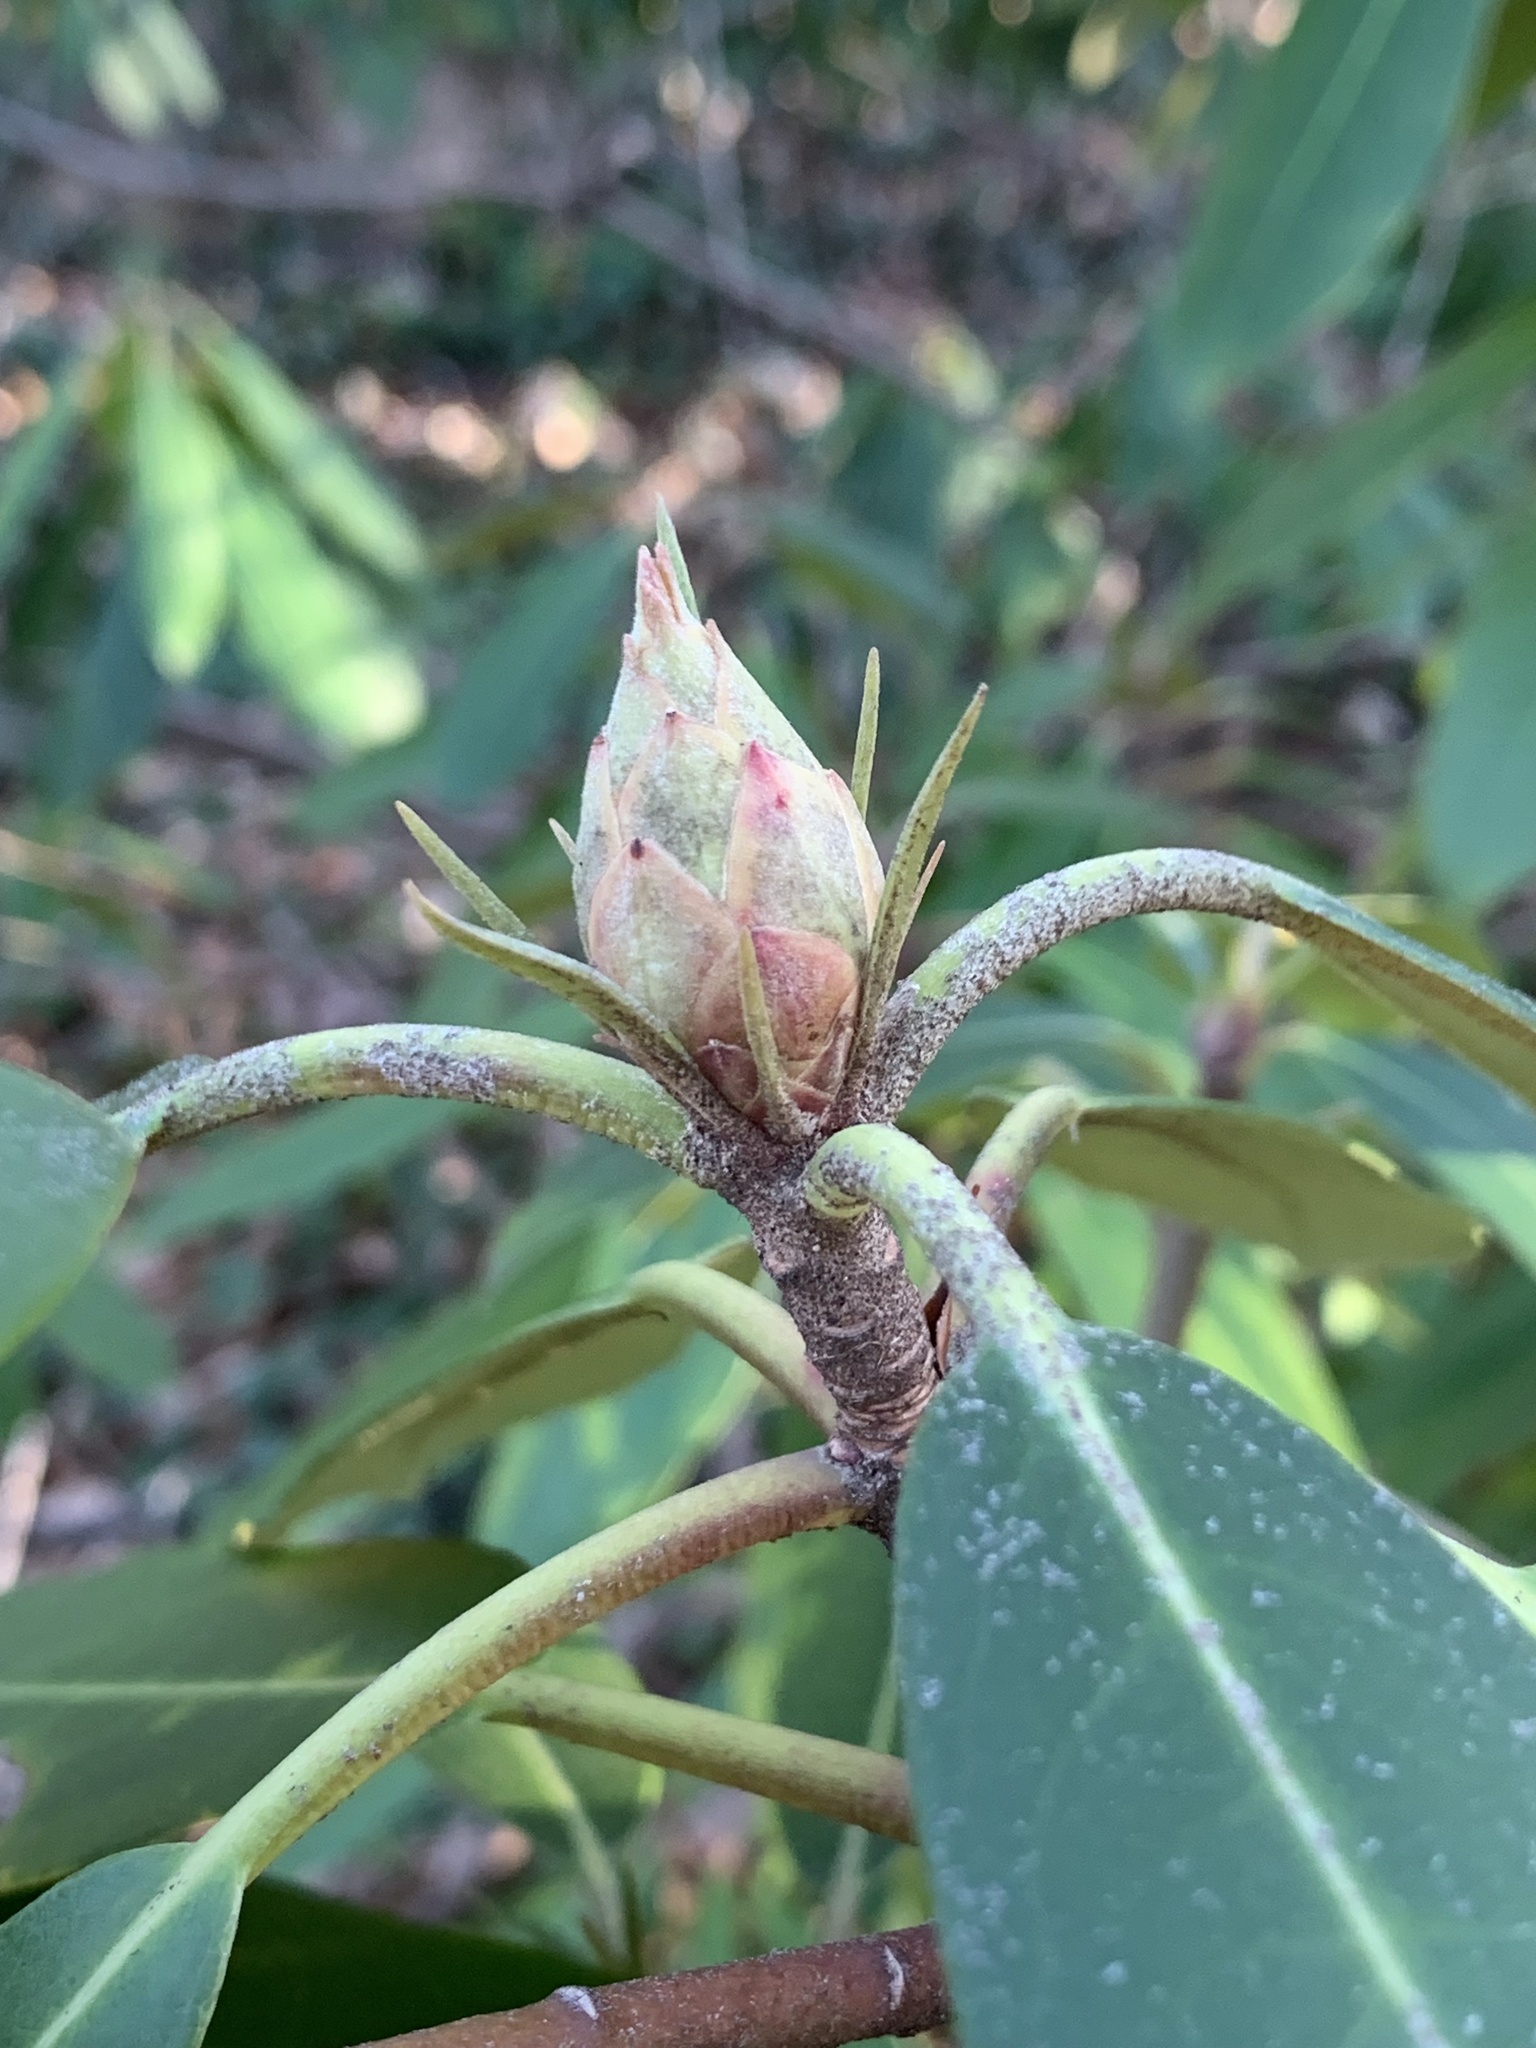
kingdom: Plantae
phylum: Tracheophyta
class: Magnoliopsida
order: Ericales
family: Ericaceae
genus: Rhododendron
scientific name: Rhododendron maximum
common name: Great rhododendron
